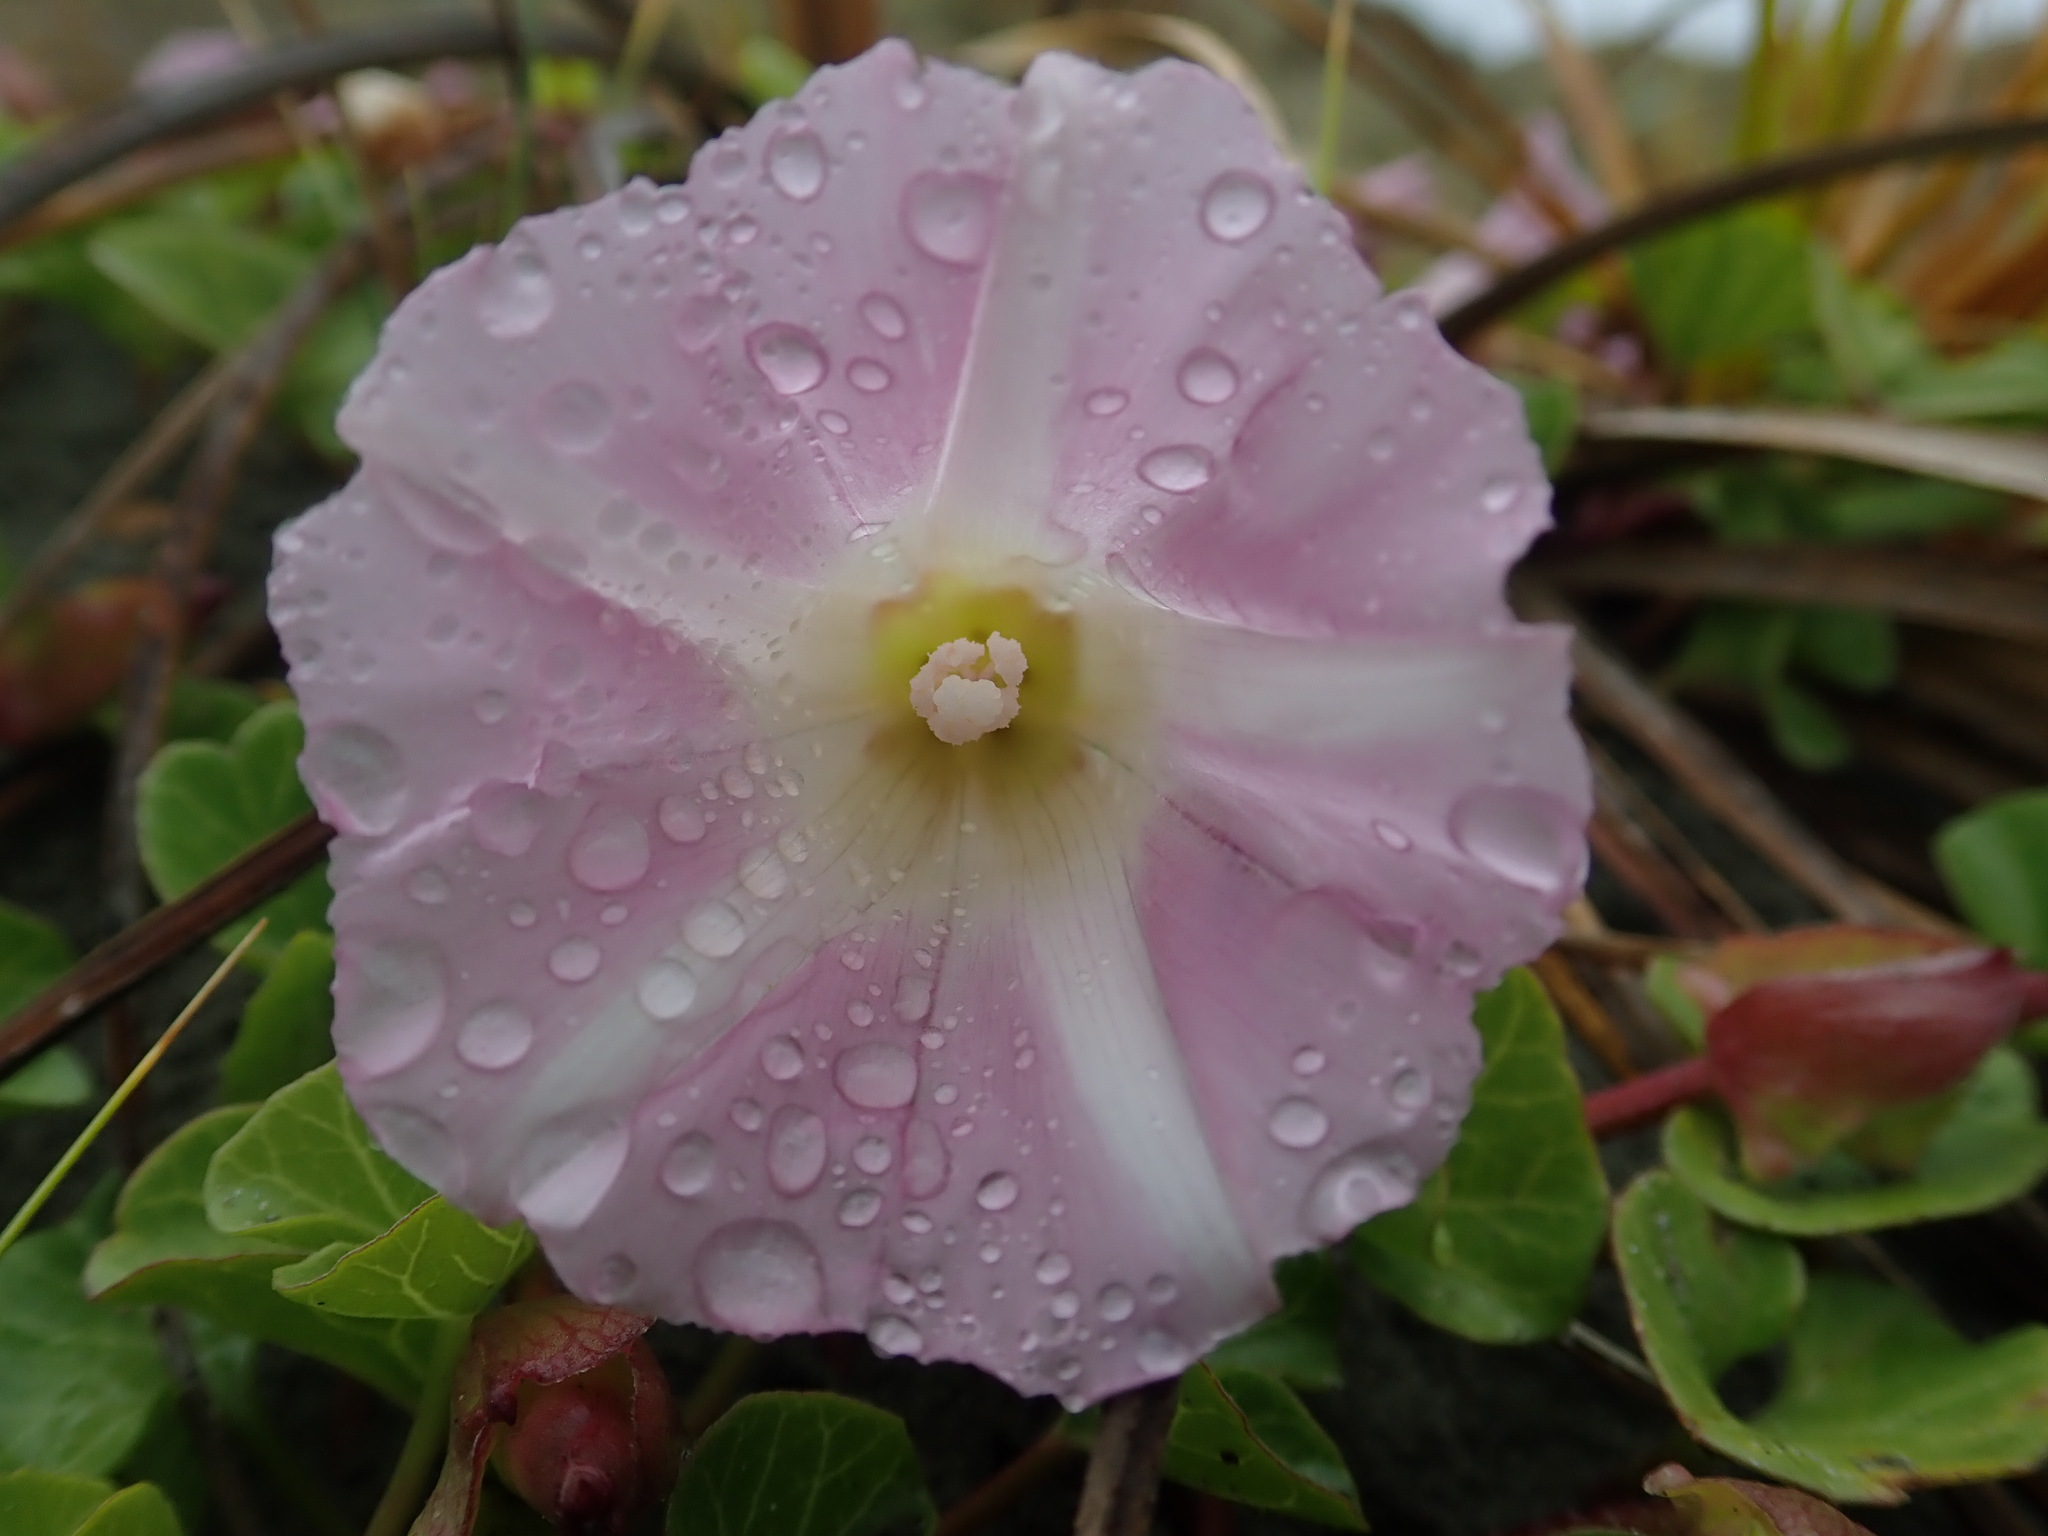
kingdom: Plantae
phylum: Tracheophyta
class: Magnoliopsida
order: Solanales
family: Convolvulaceae
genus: Calystegia
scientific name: Calystegia soldanella
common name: Sea bindweed
